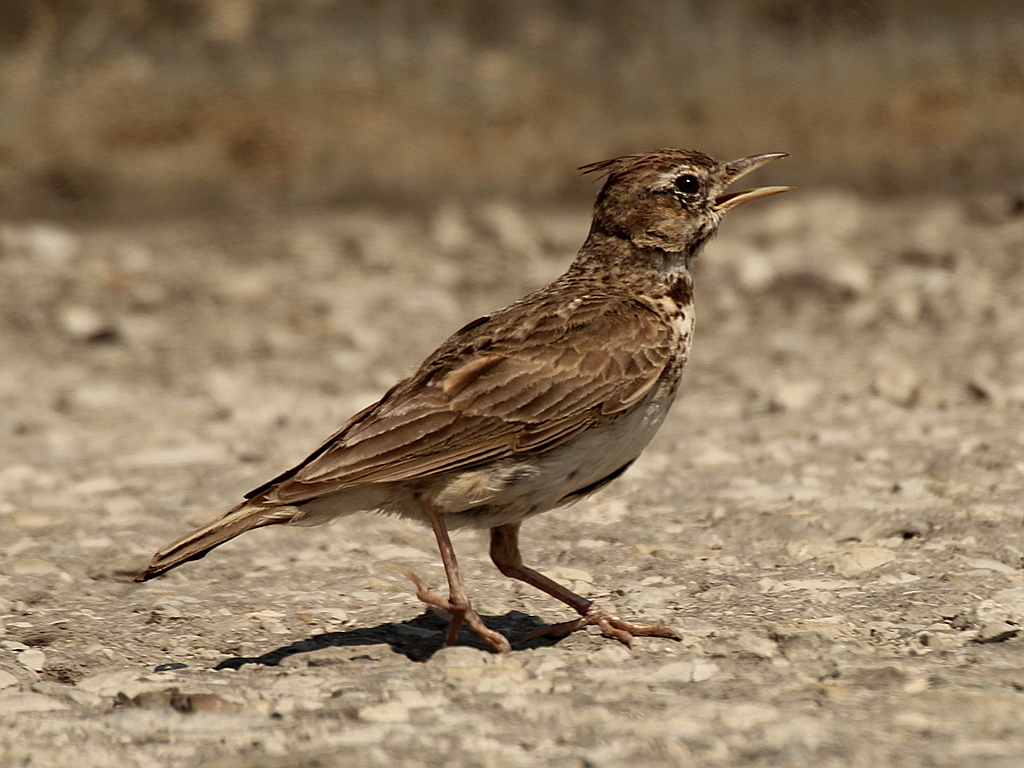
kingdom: Animalia
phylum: Chordata
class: Aves
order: Passeriformes
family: Alaudidae
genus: Galerida
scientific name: Galerida cristata
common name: Crested lark
